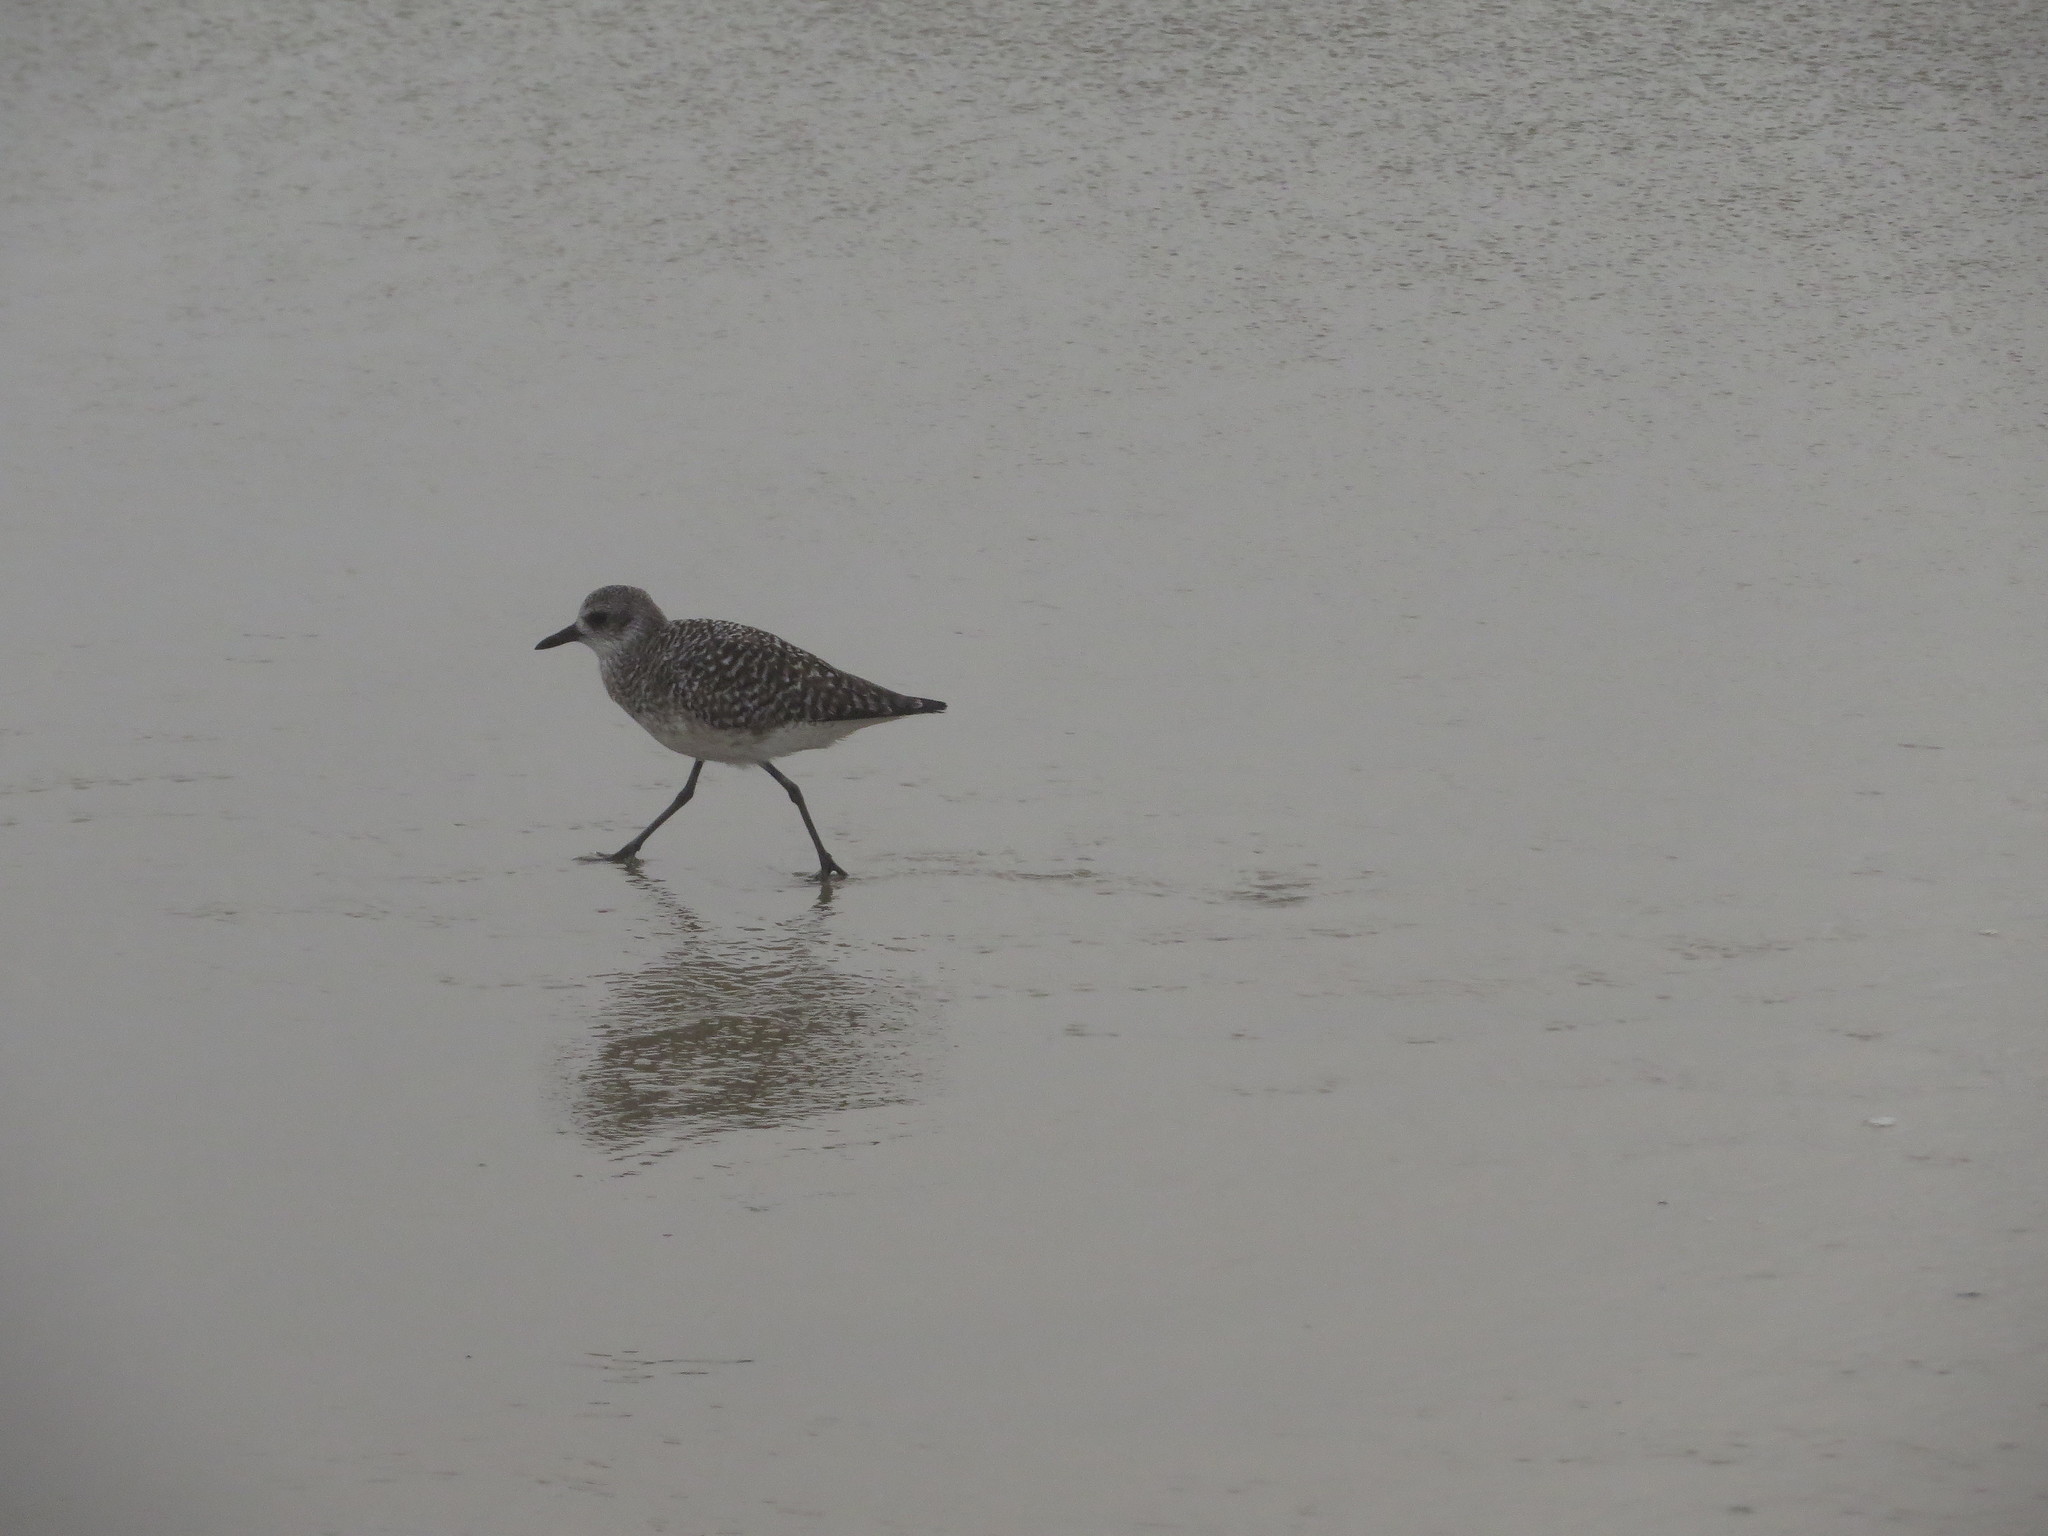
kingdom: Animalia
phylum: Chordata
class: Aves
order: Charadriiformes
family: Charadriidae
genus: Pluvialis
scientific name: Pluvialis squatarola
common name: Grey plover
